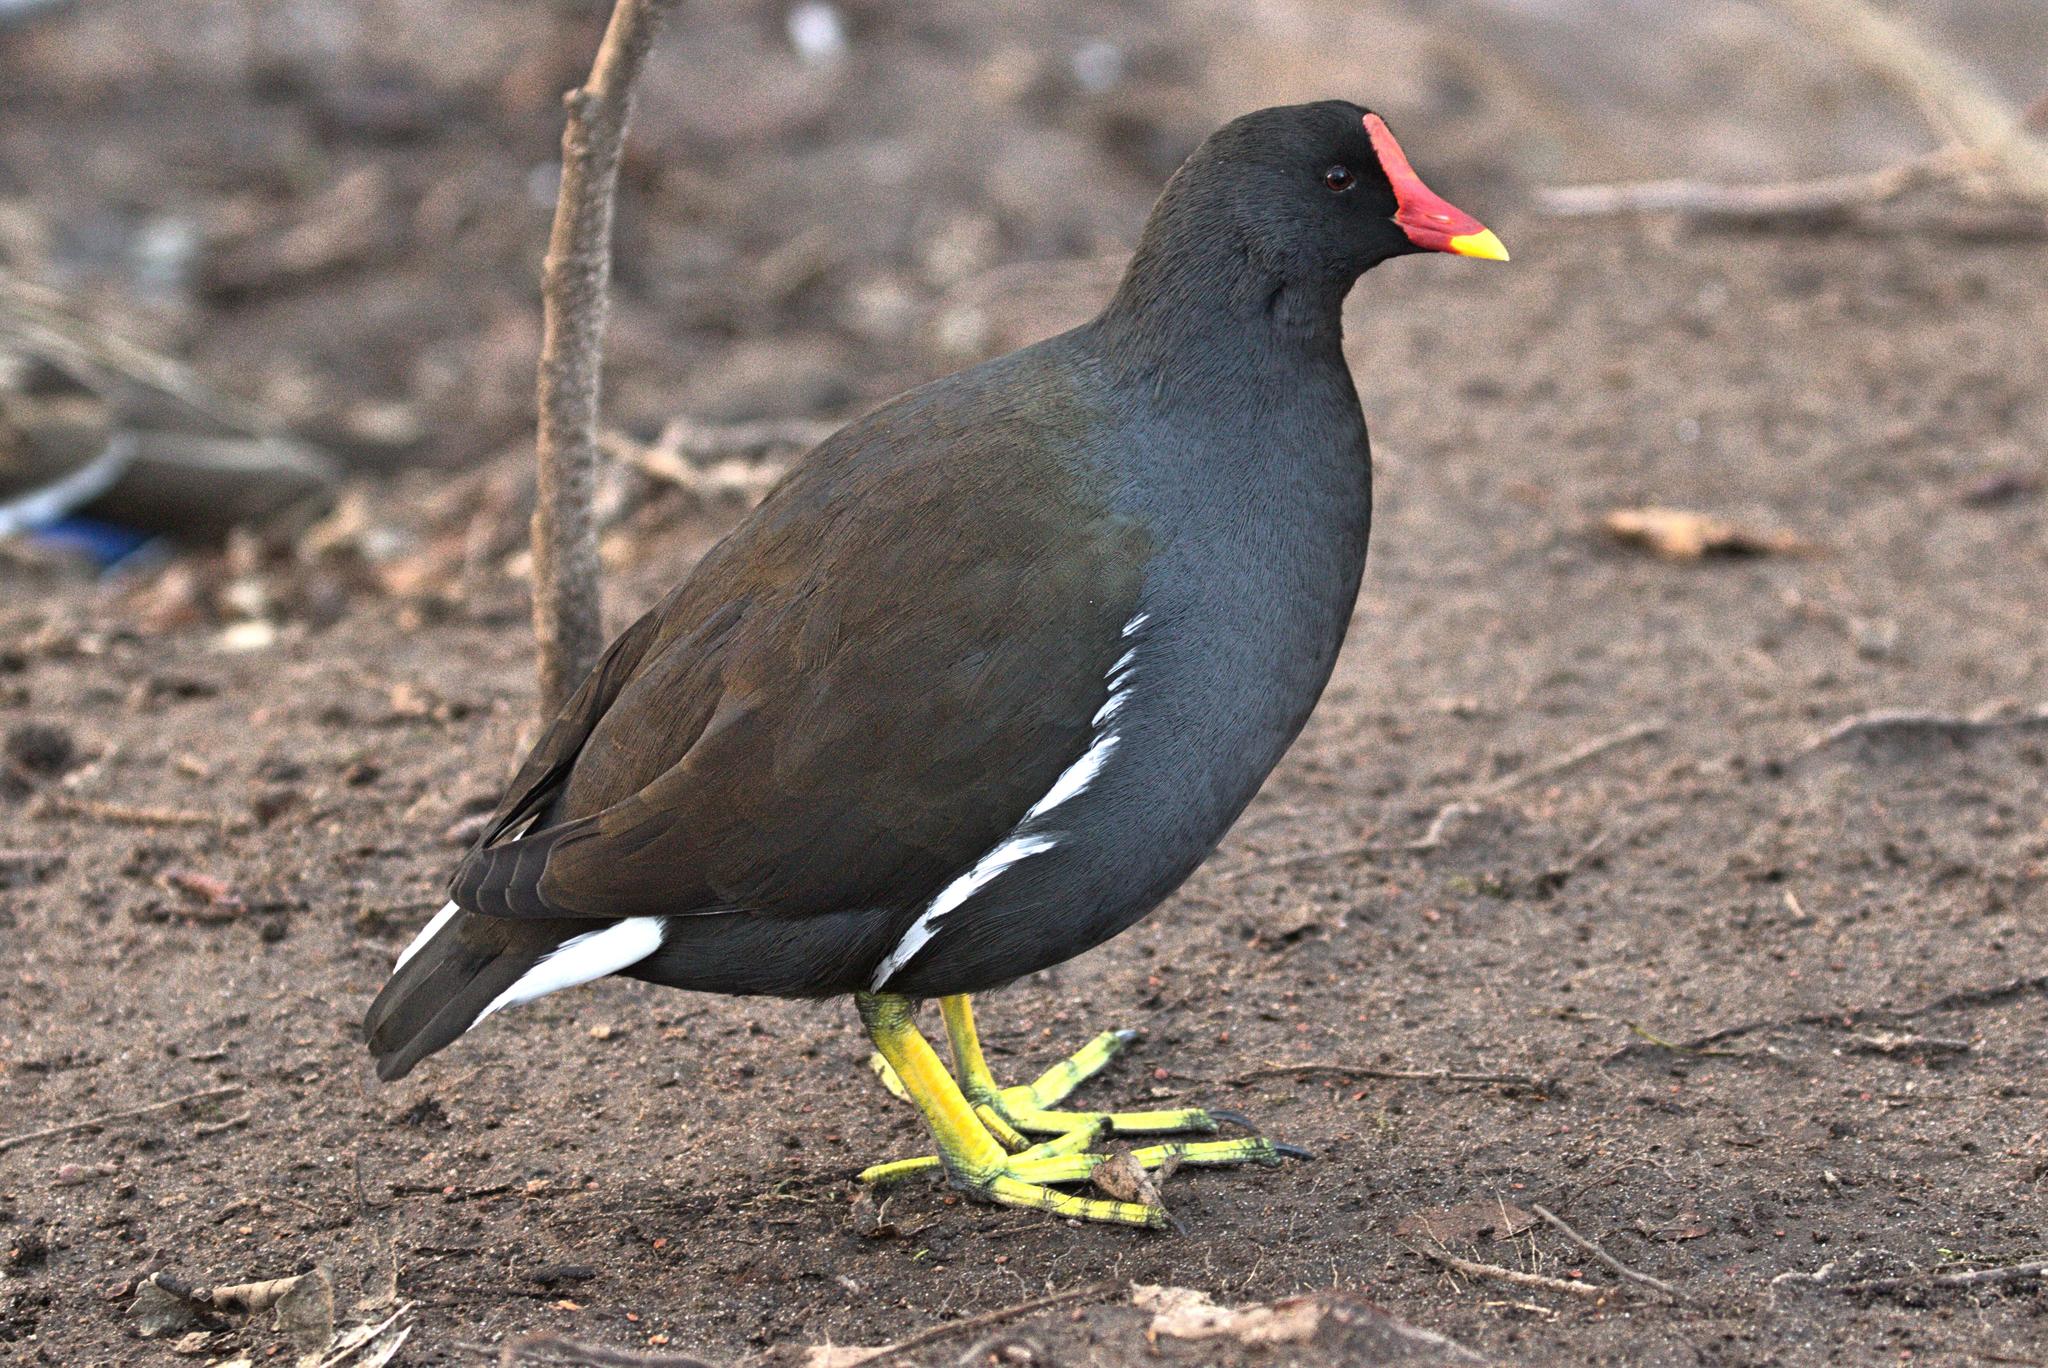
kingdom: Animalia
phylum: Chordata
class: Aves
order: Gruiformes
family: Rallidae
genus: Gallinula
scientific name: Gallinula chloropus
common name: Common moorhen
